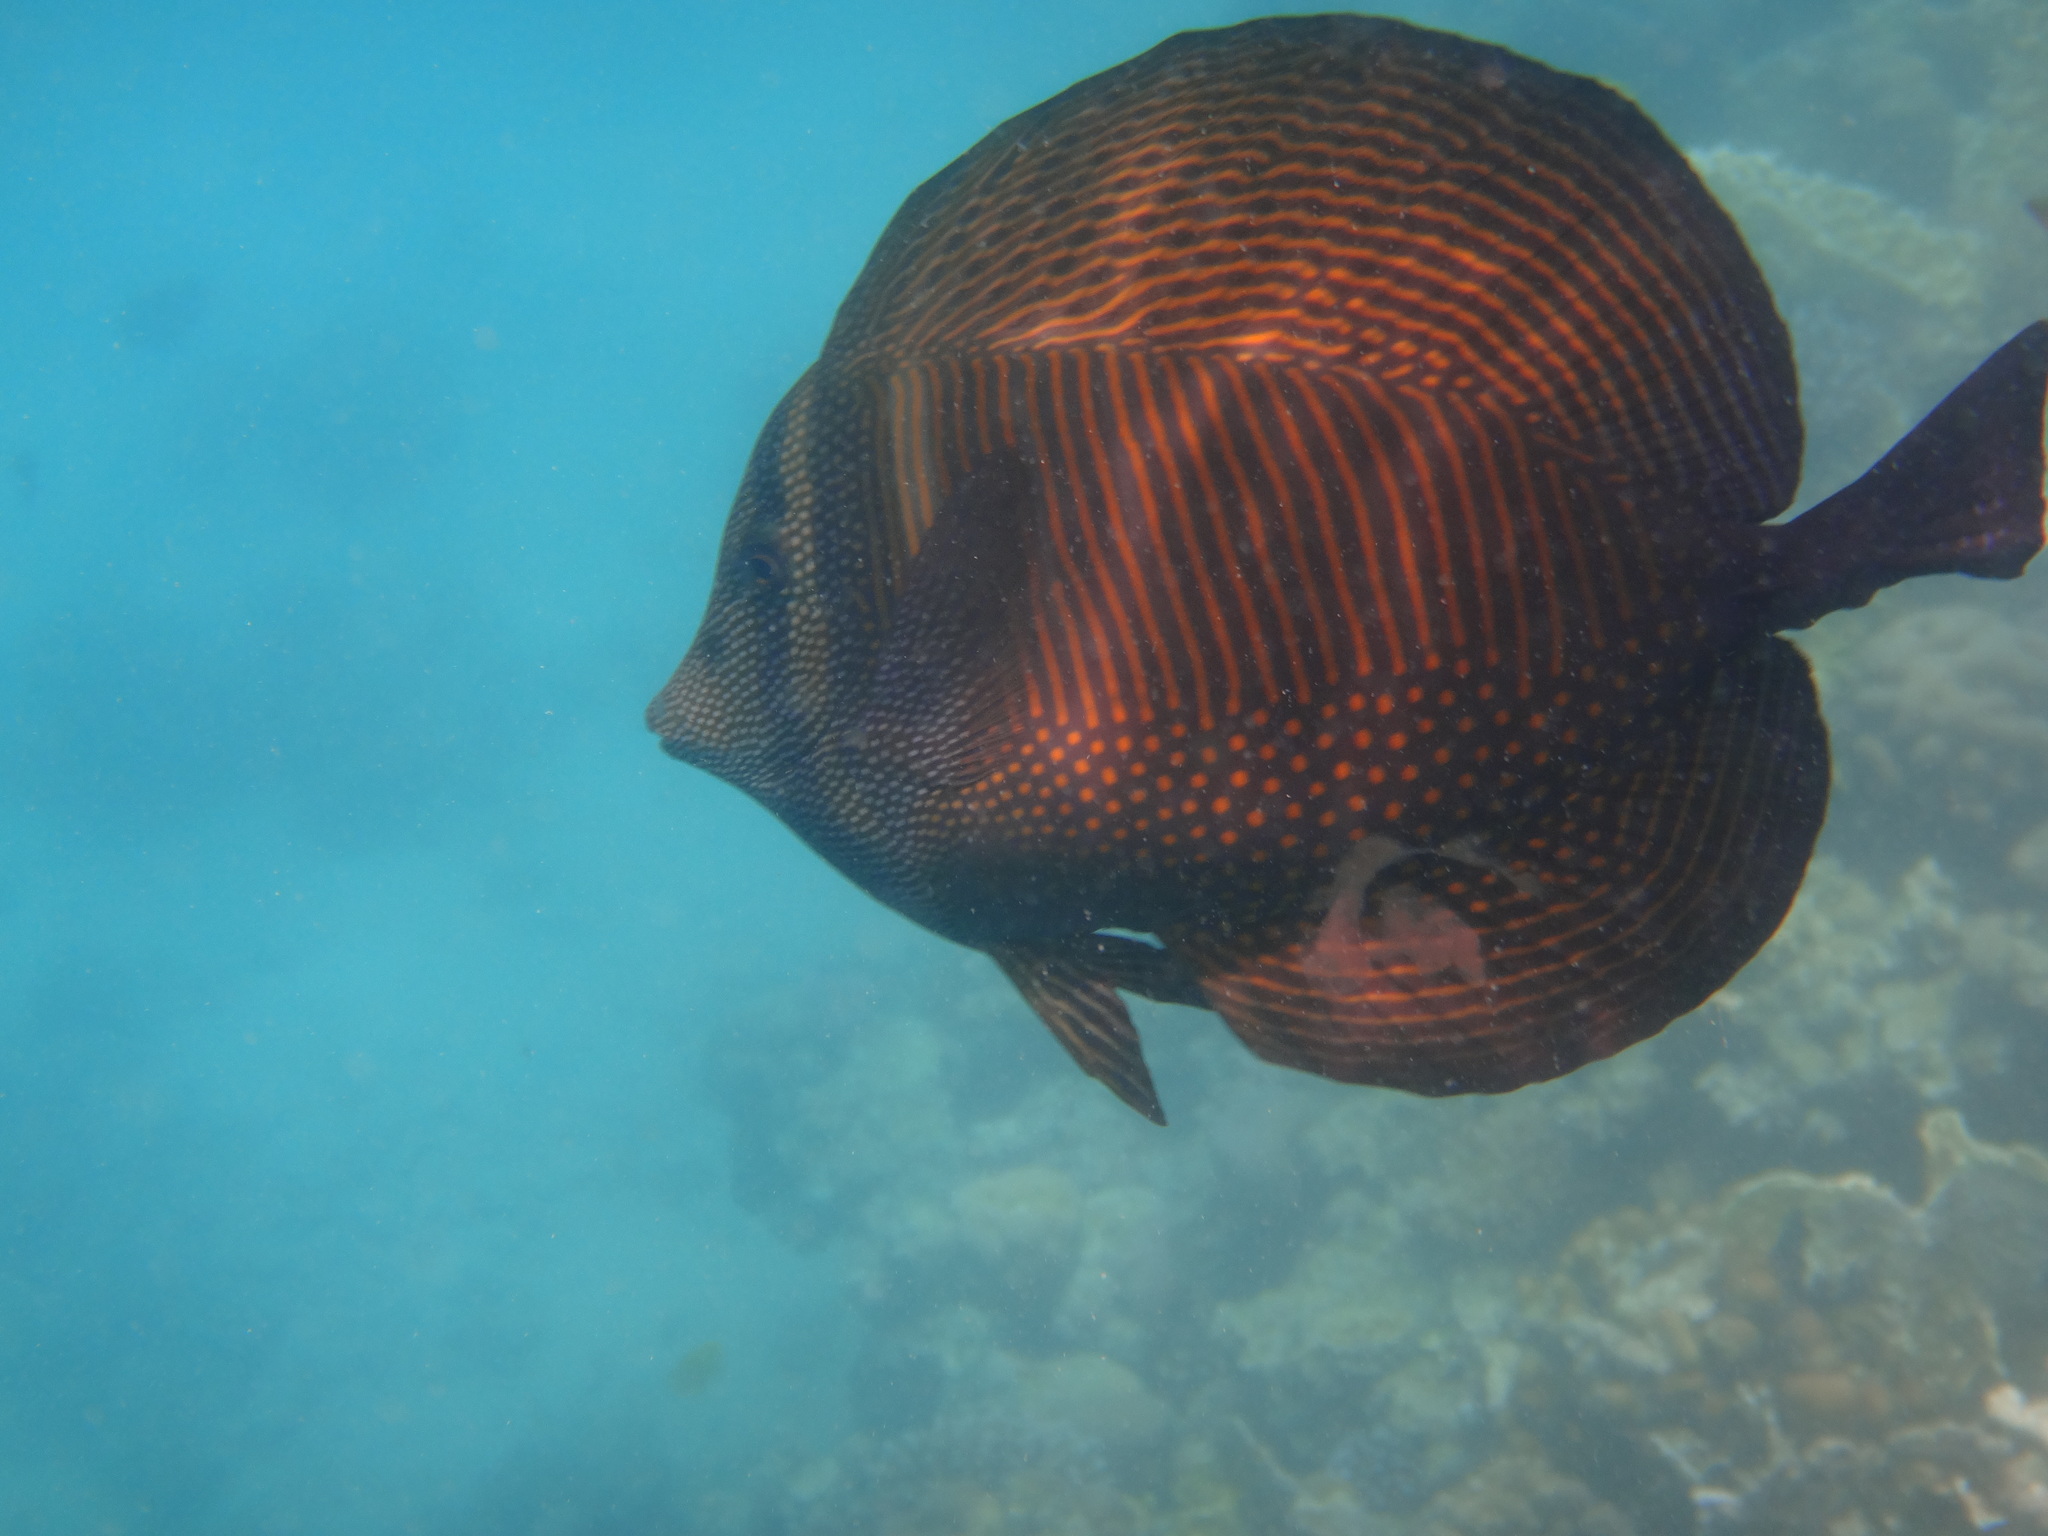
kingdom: Animalia
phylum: Chordata
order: Perciformes
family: Acanthuridae
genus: Zebrasoma
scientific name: Zebrasoma desjardinii
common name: Desjardin's sailfin tang
